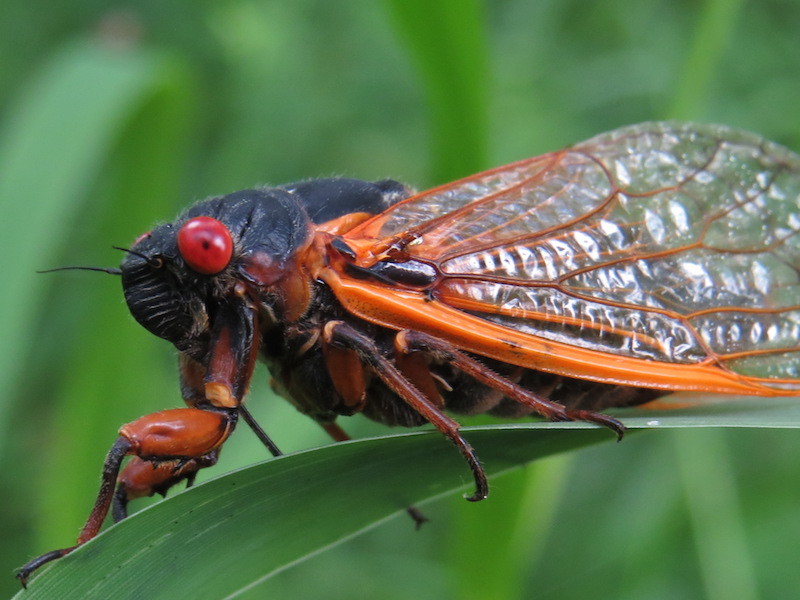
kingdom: Animalia
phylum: Arthropoda
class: Insecta
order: Hemiptera
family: Cicadidae
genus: Magicicada
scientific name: Magicicada septendecim
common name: Periodical cicada
